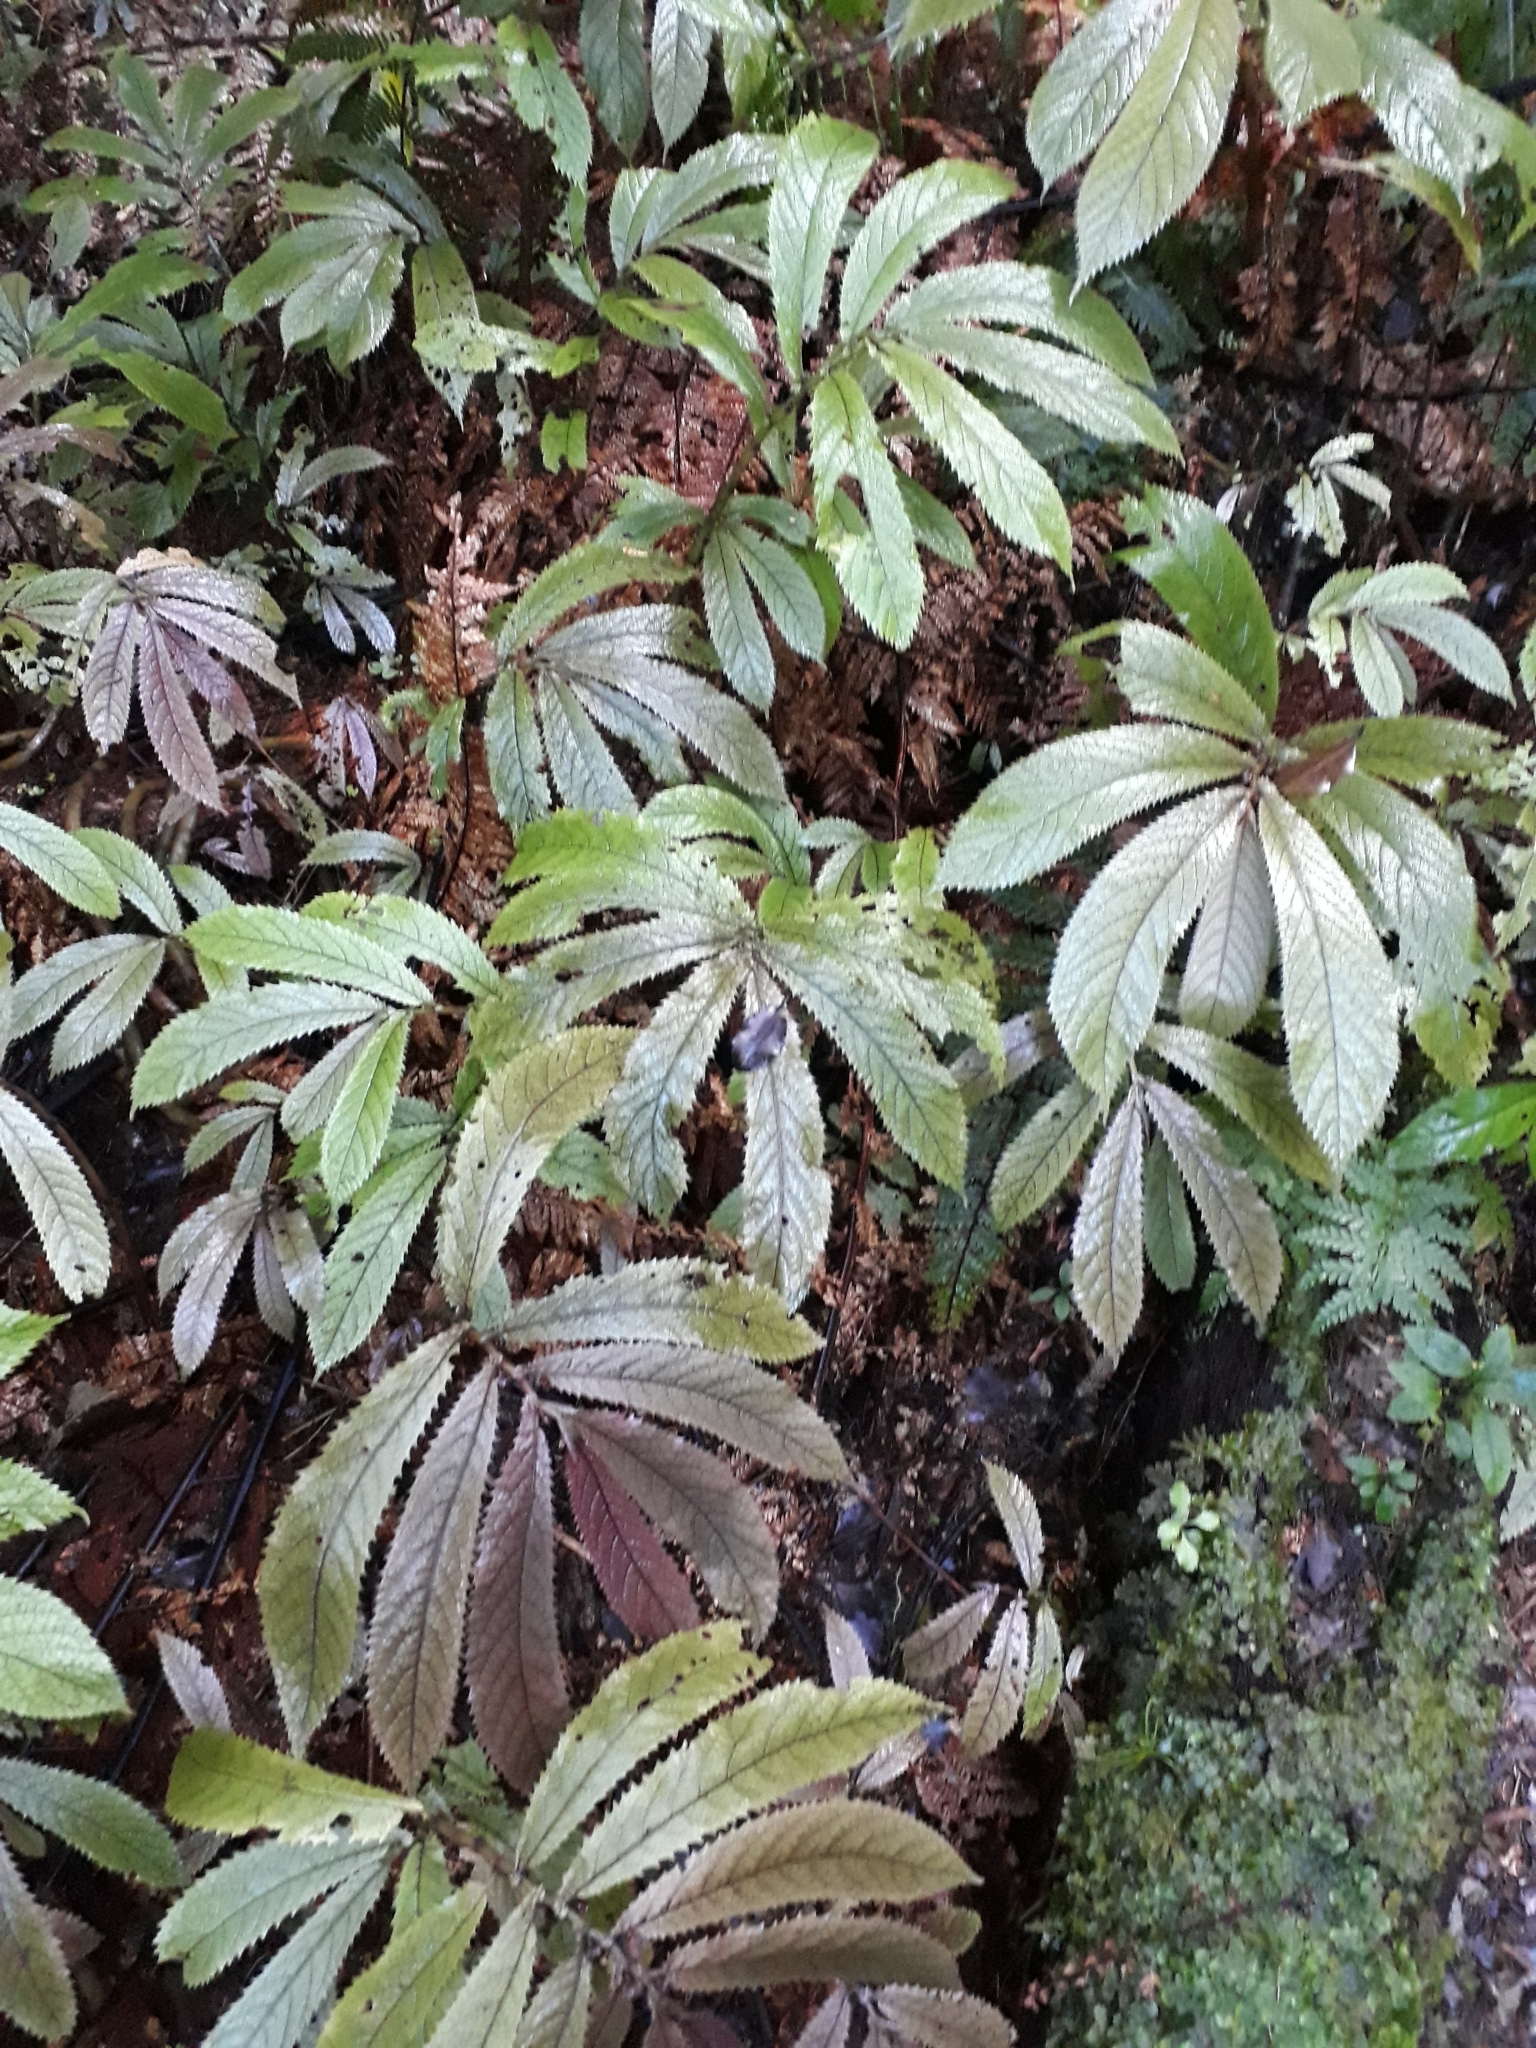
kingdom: Plantae
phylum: Tracheophyta
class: Magnoliopsida
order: Rosales
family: Urticaceae
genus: Elatostema
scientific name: Elatostema rugosum
